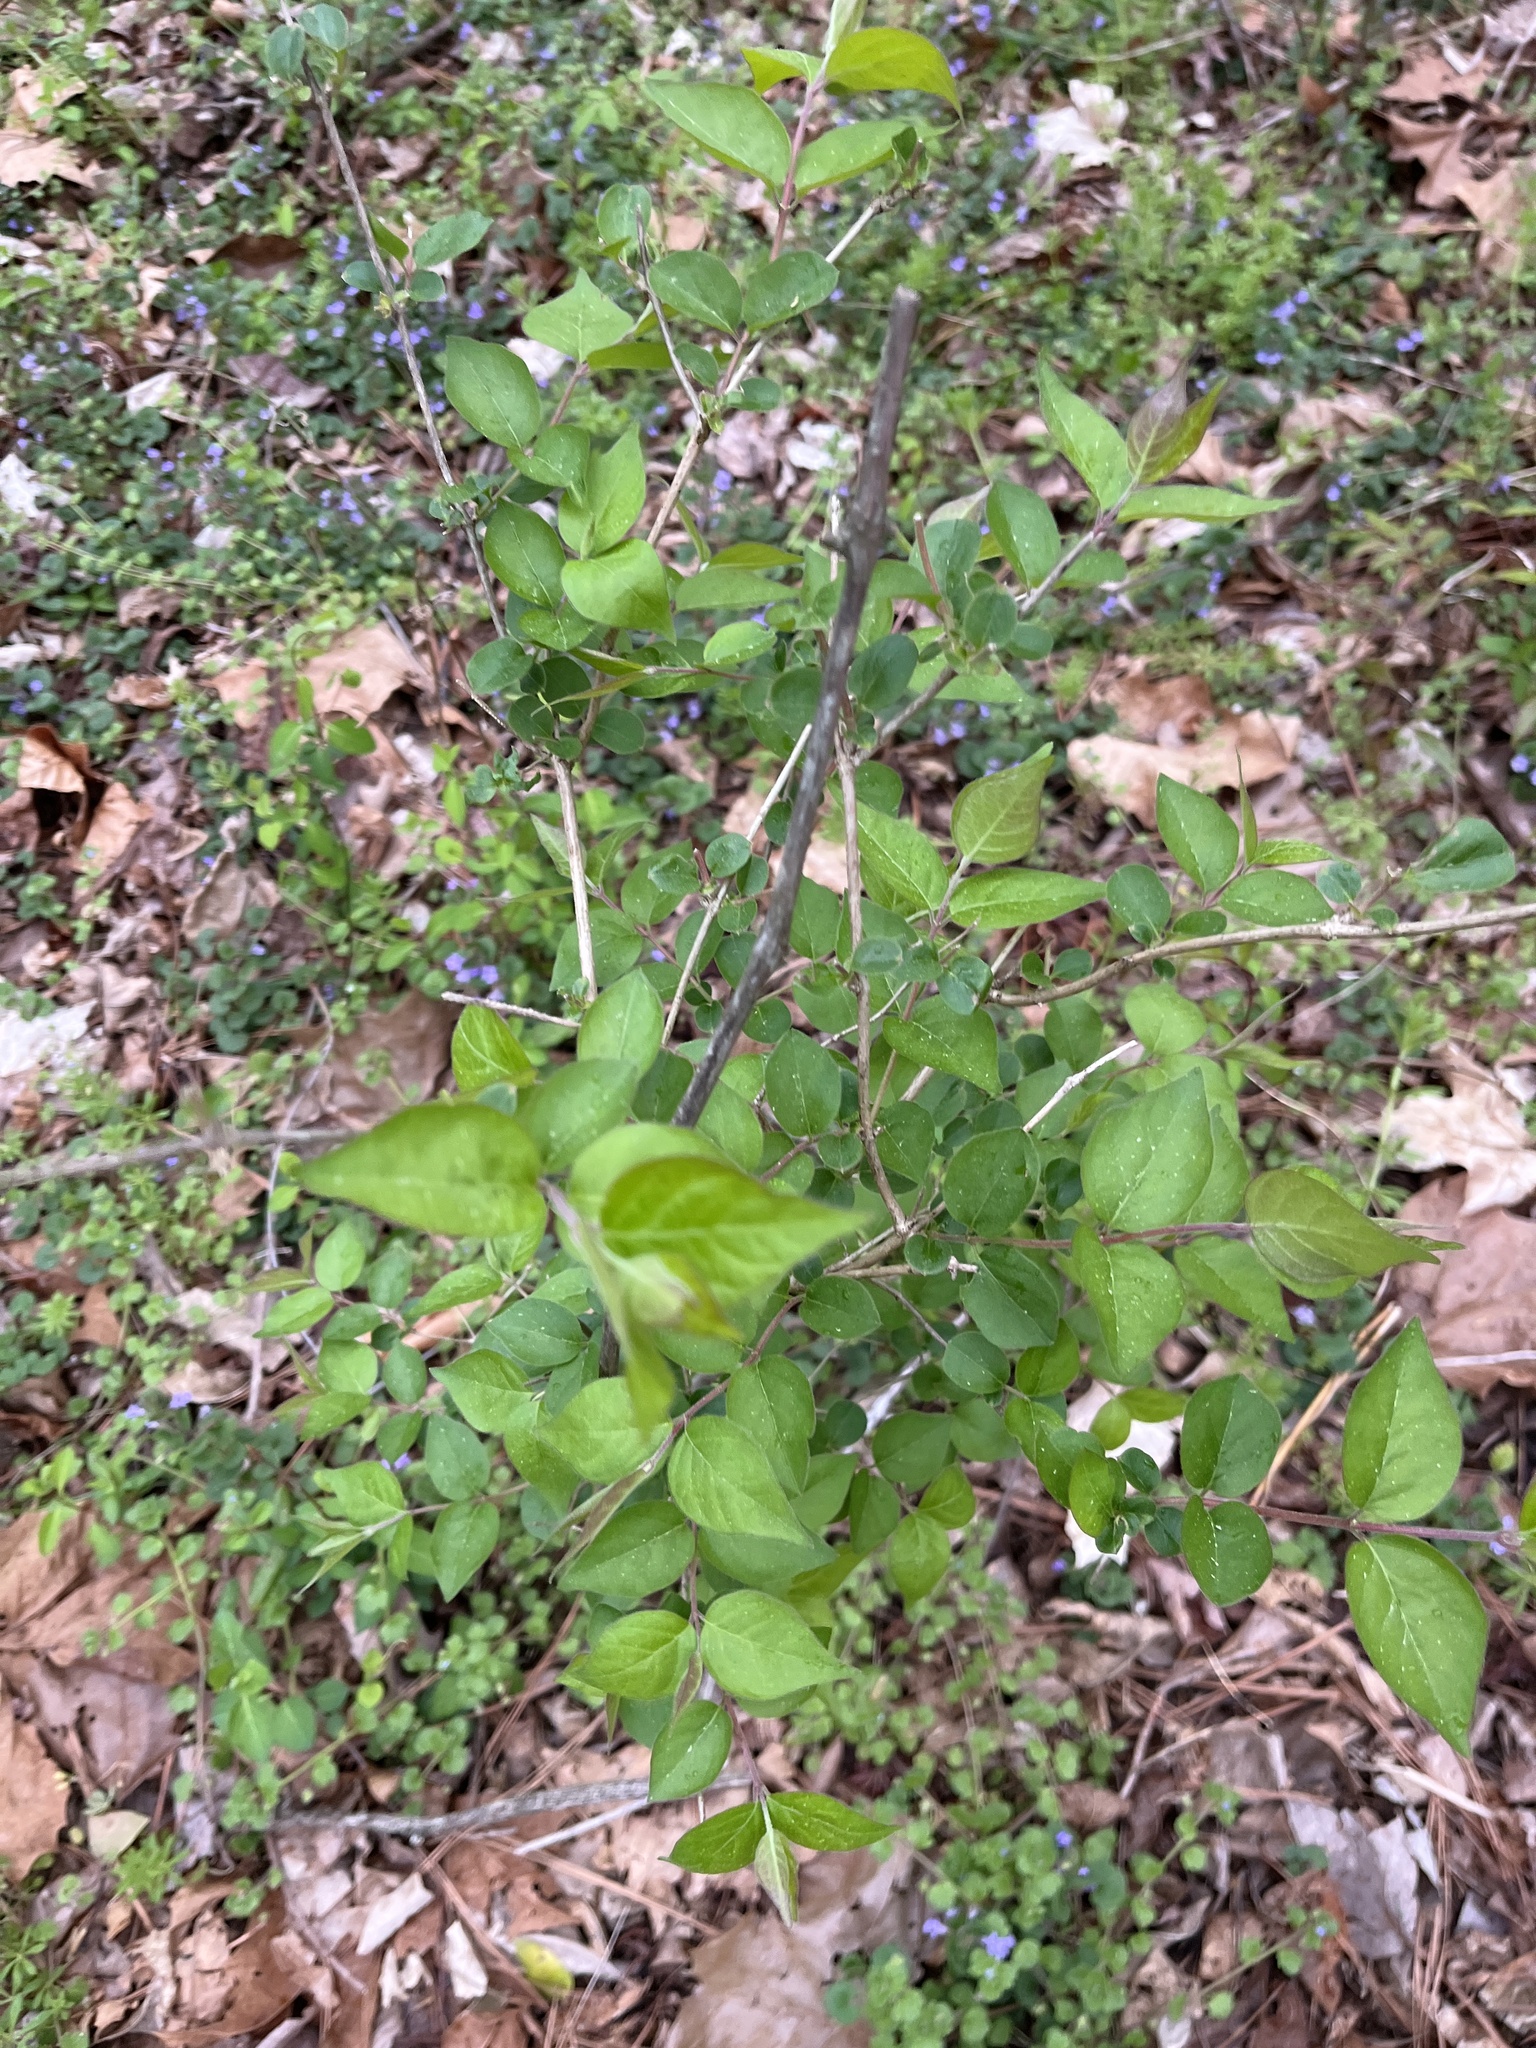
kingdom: Plantae
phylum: Tracheophyta
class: Magnoliopsida
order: Dipsacales
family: Caprifoliaceae
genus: Lonicera
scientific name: Lonicera maackii
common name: Amur honeysuckle
